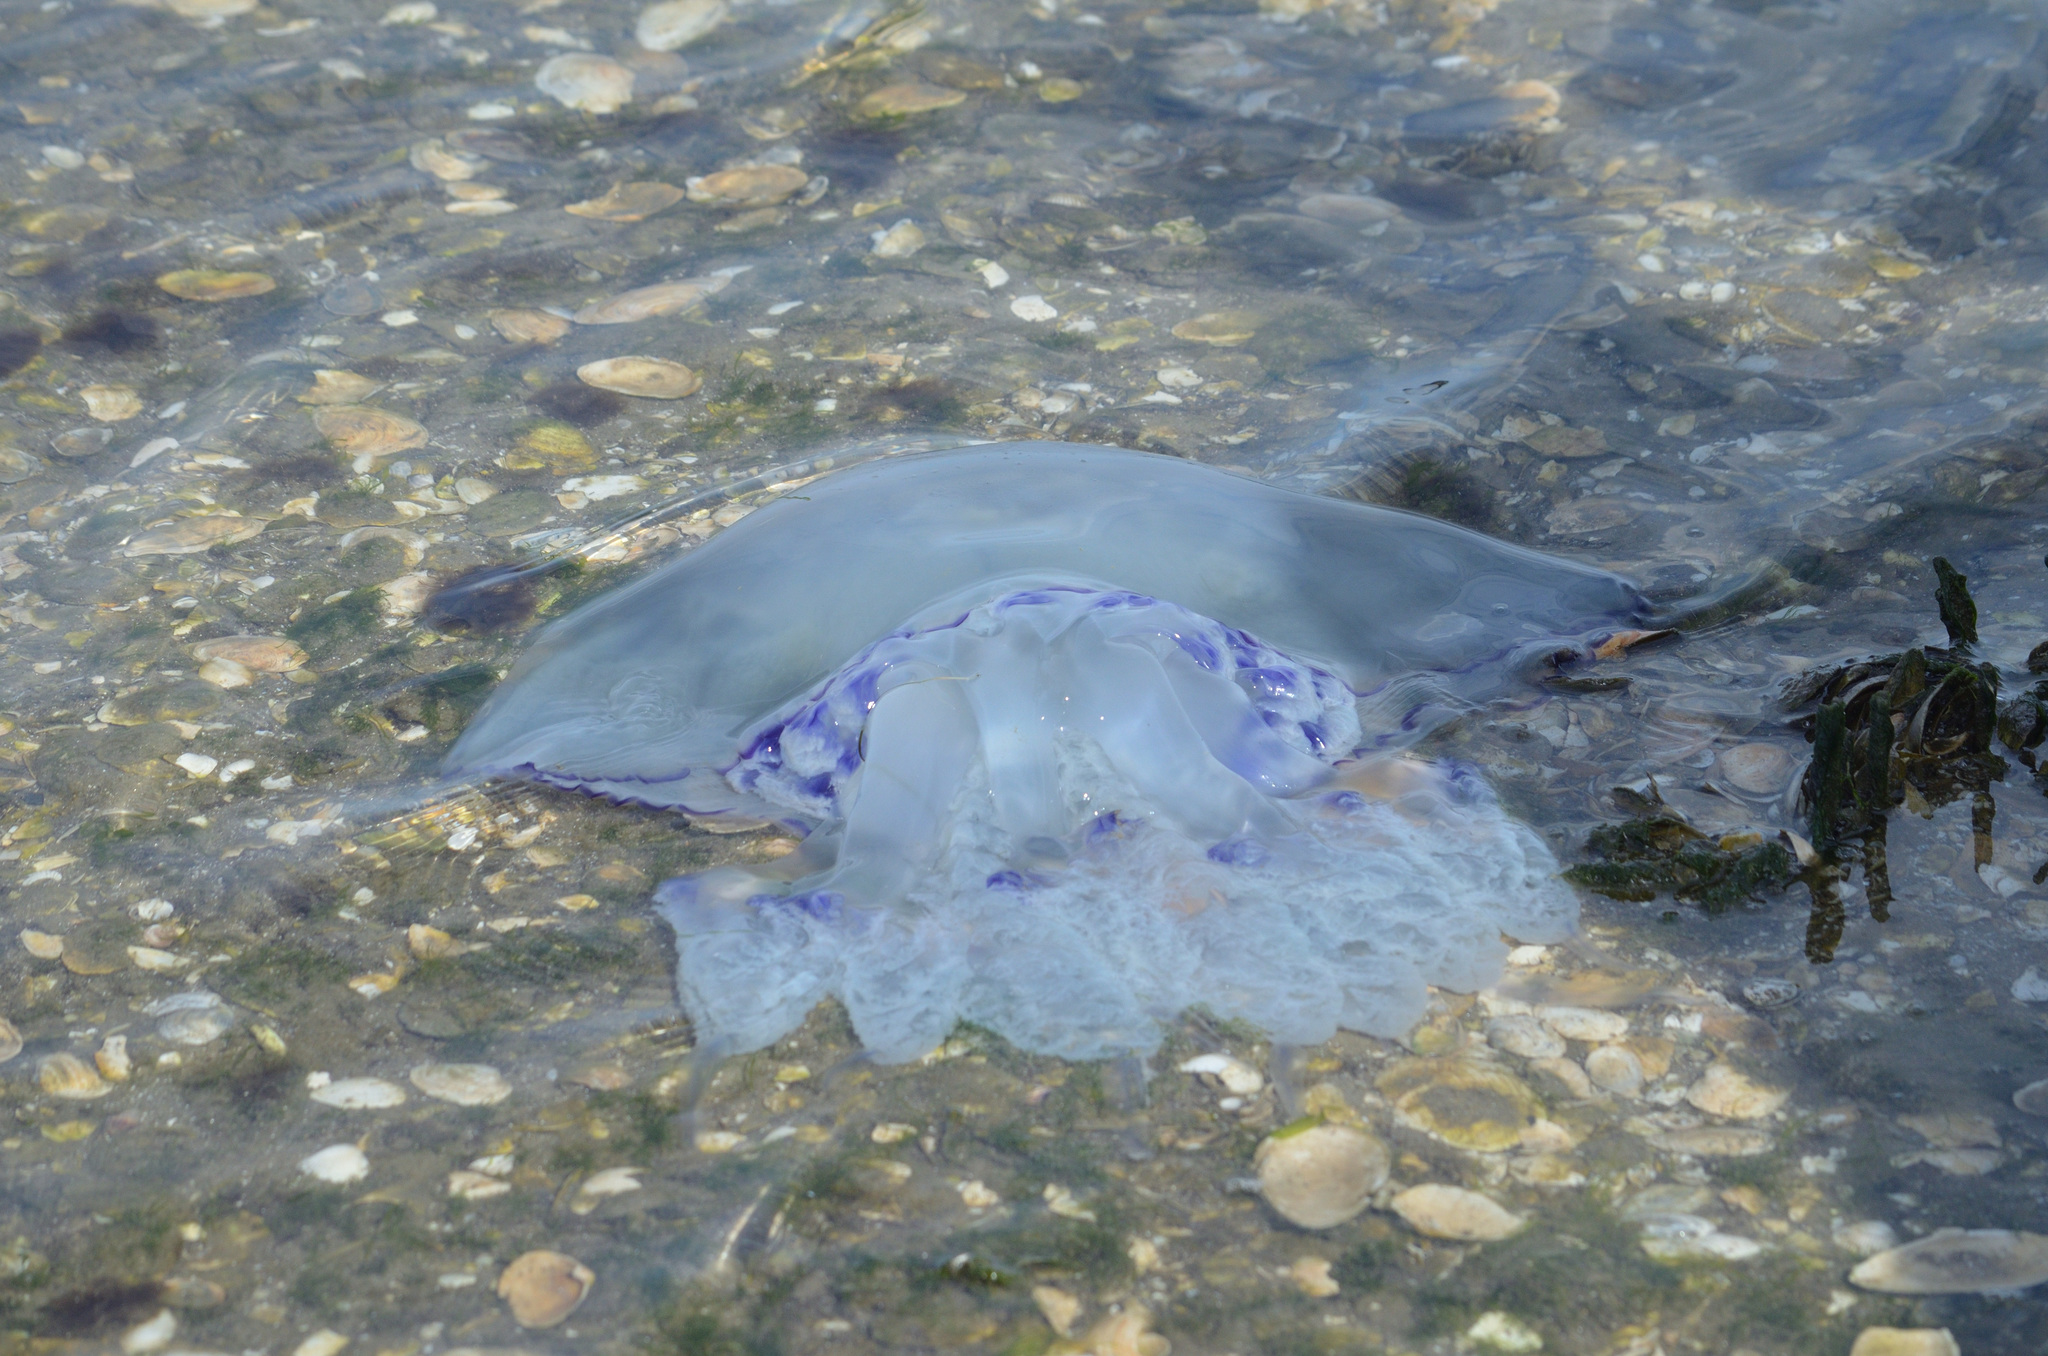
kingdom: Animalia
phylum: Cnidaria
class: Scyphozoa
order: Rhizostomeae
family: Rhizostomatidae
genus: Rhizostoma
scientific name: Rhizostoma pulmo
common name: Barrel jellyfish
